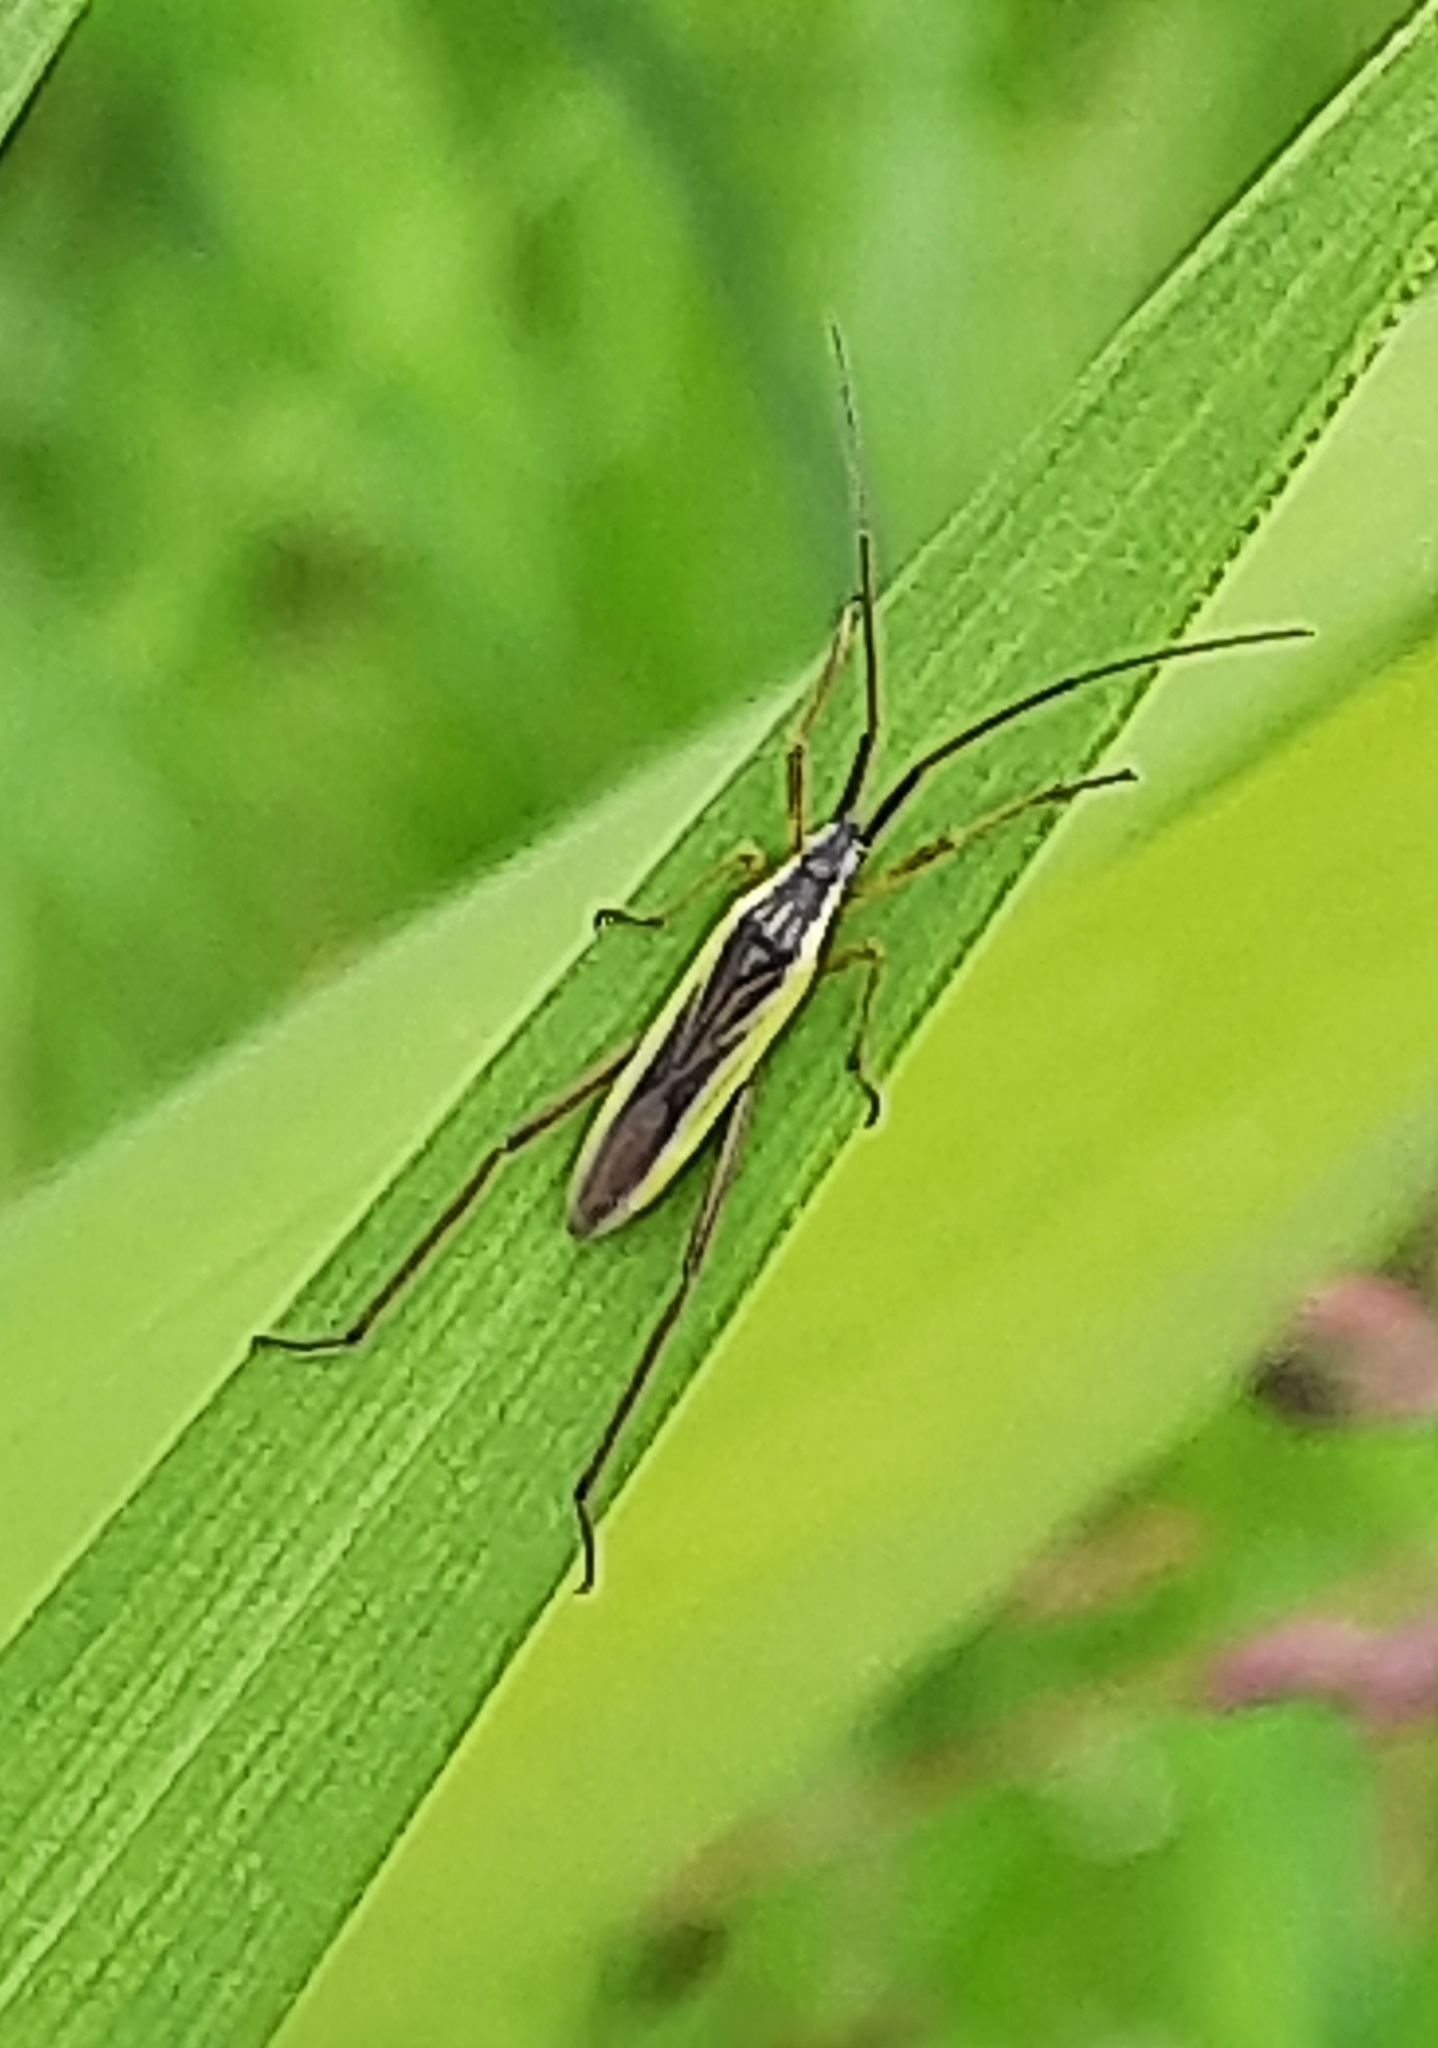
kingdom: Animalia
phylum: Arthropoda
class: Insecta
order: Hemiptera
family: Miridae
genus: Notostira
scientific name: Notostira elongata
